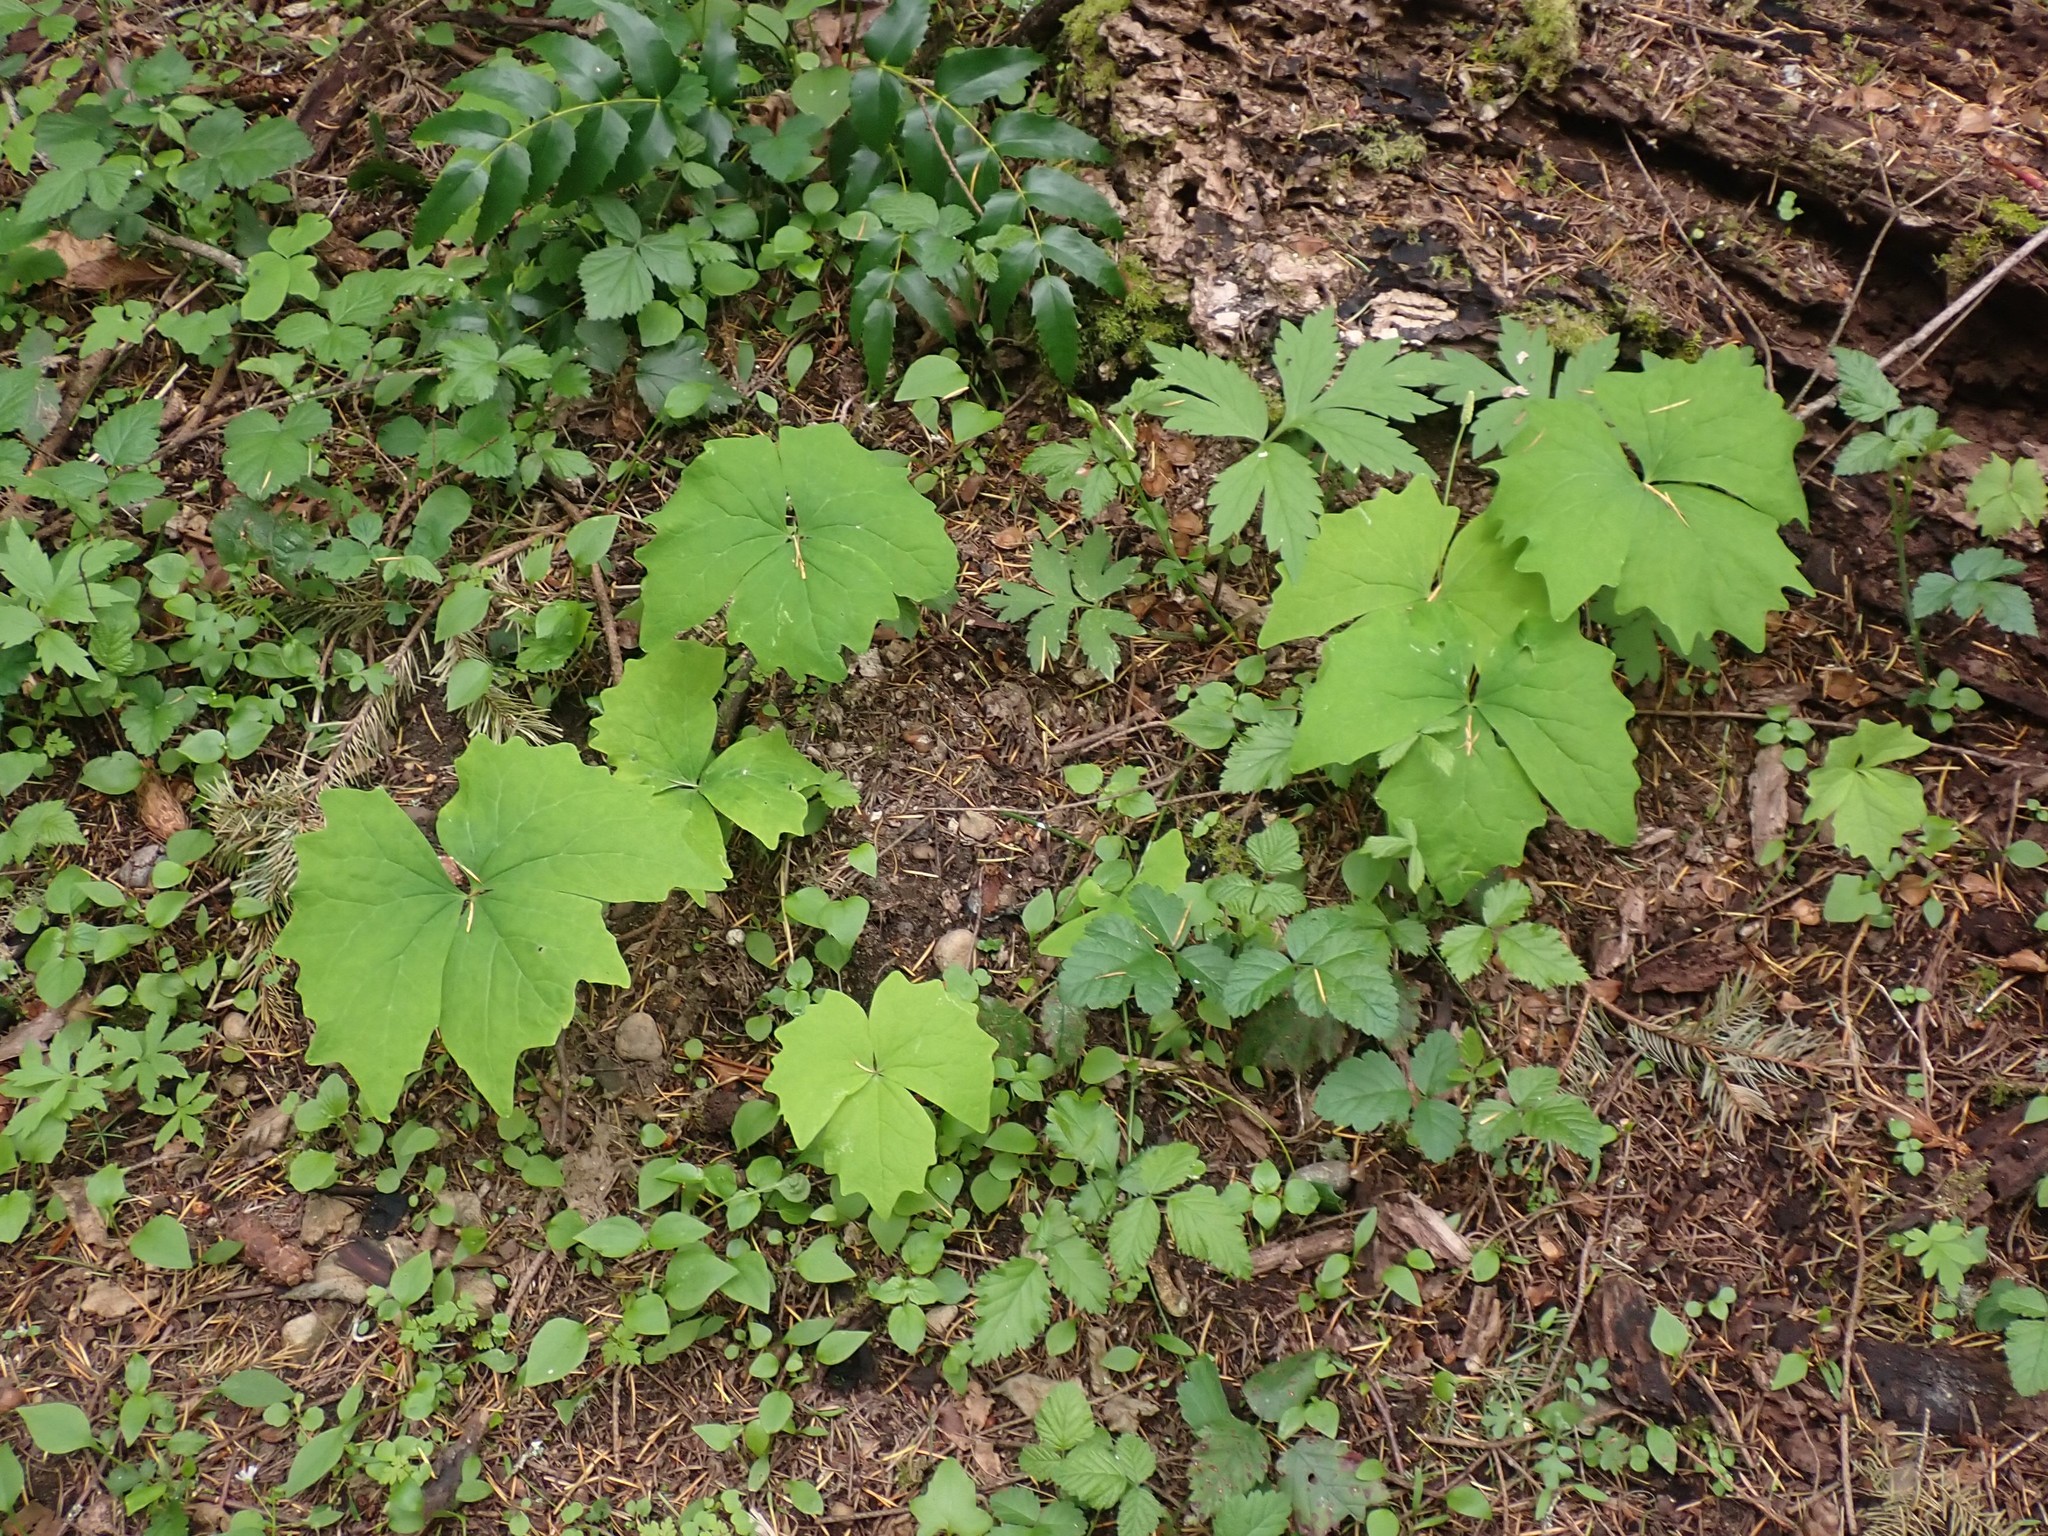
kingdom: Plantae
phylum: Tracheophyta
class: Magnoliopsida
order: Ranunculales
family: Berberidaceae
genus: Achlys
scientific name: Achlys triphylla
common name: Vanilla-leaf
